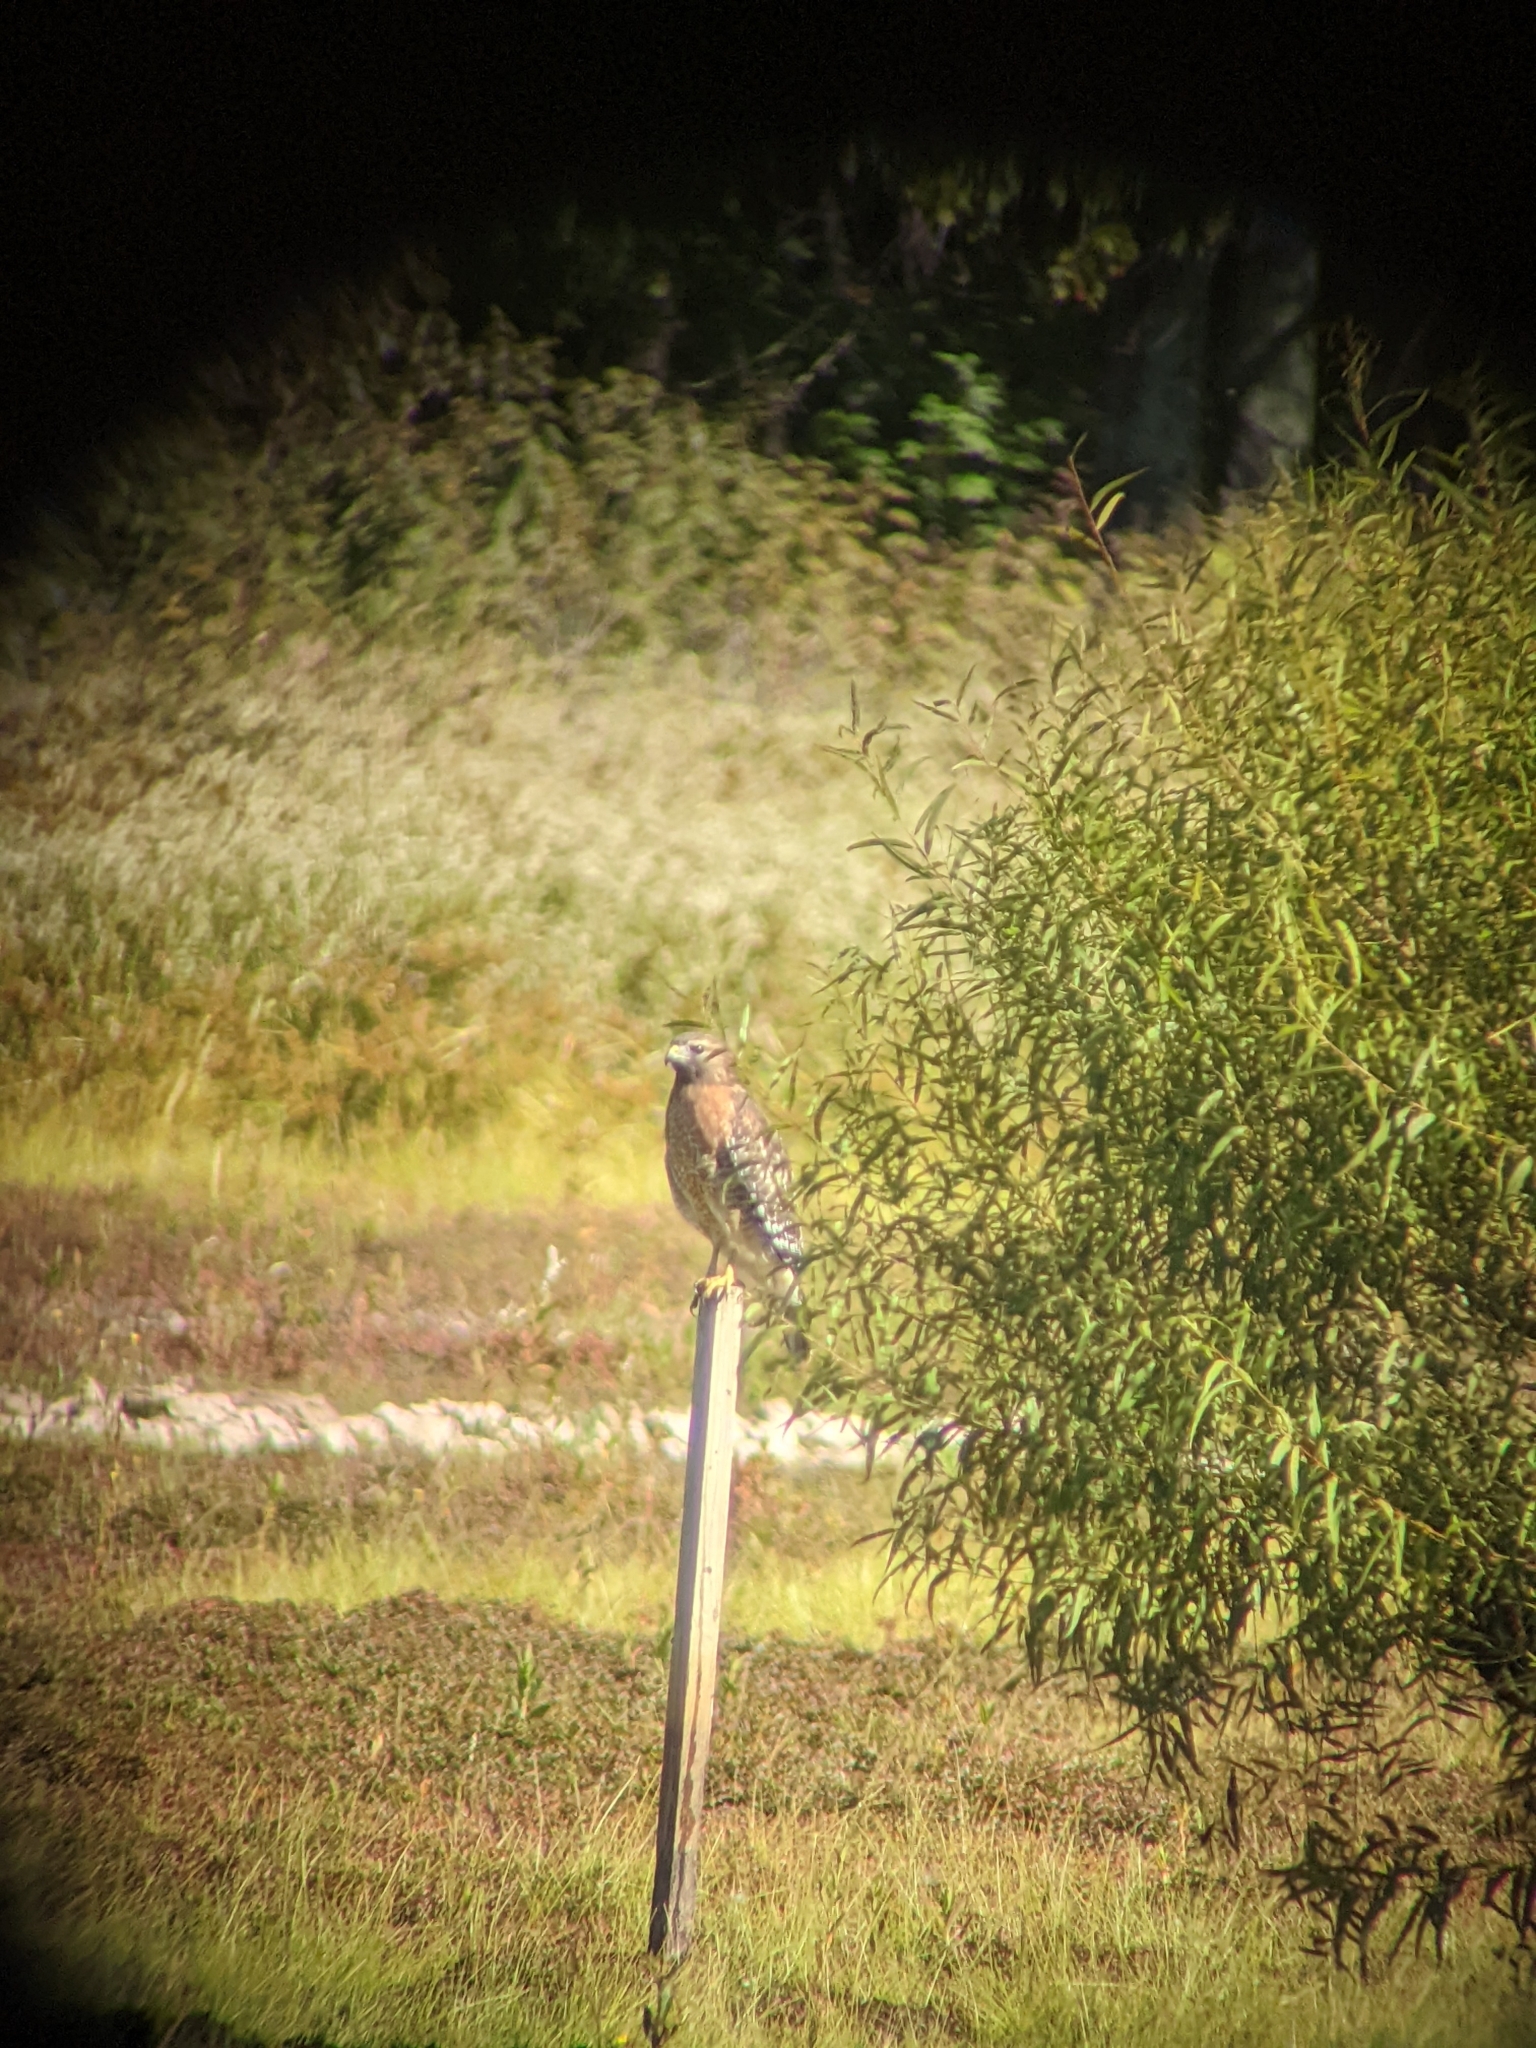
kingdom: Animalia
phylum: Chordata
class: Aves
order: Accipitriformes
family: Accipitridae
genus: Buteo
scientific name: Buteo lineatus
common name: Red-shouldered hawk
